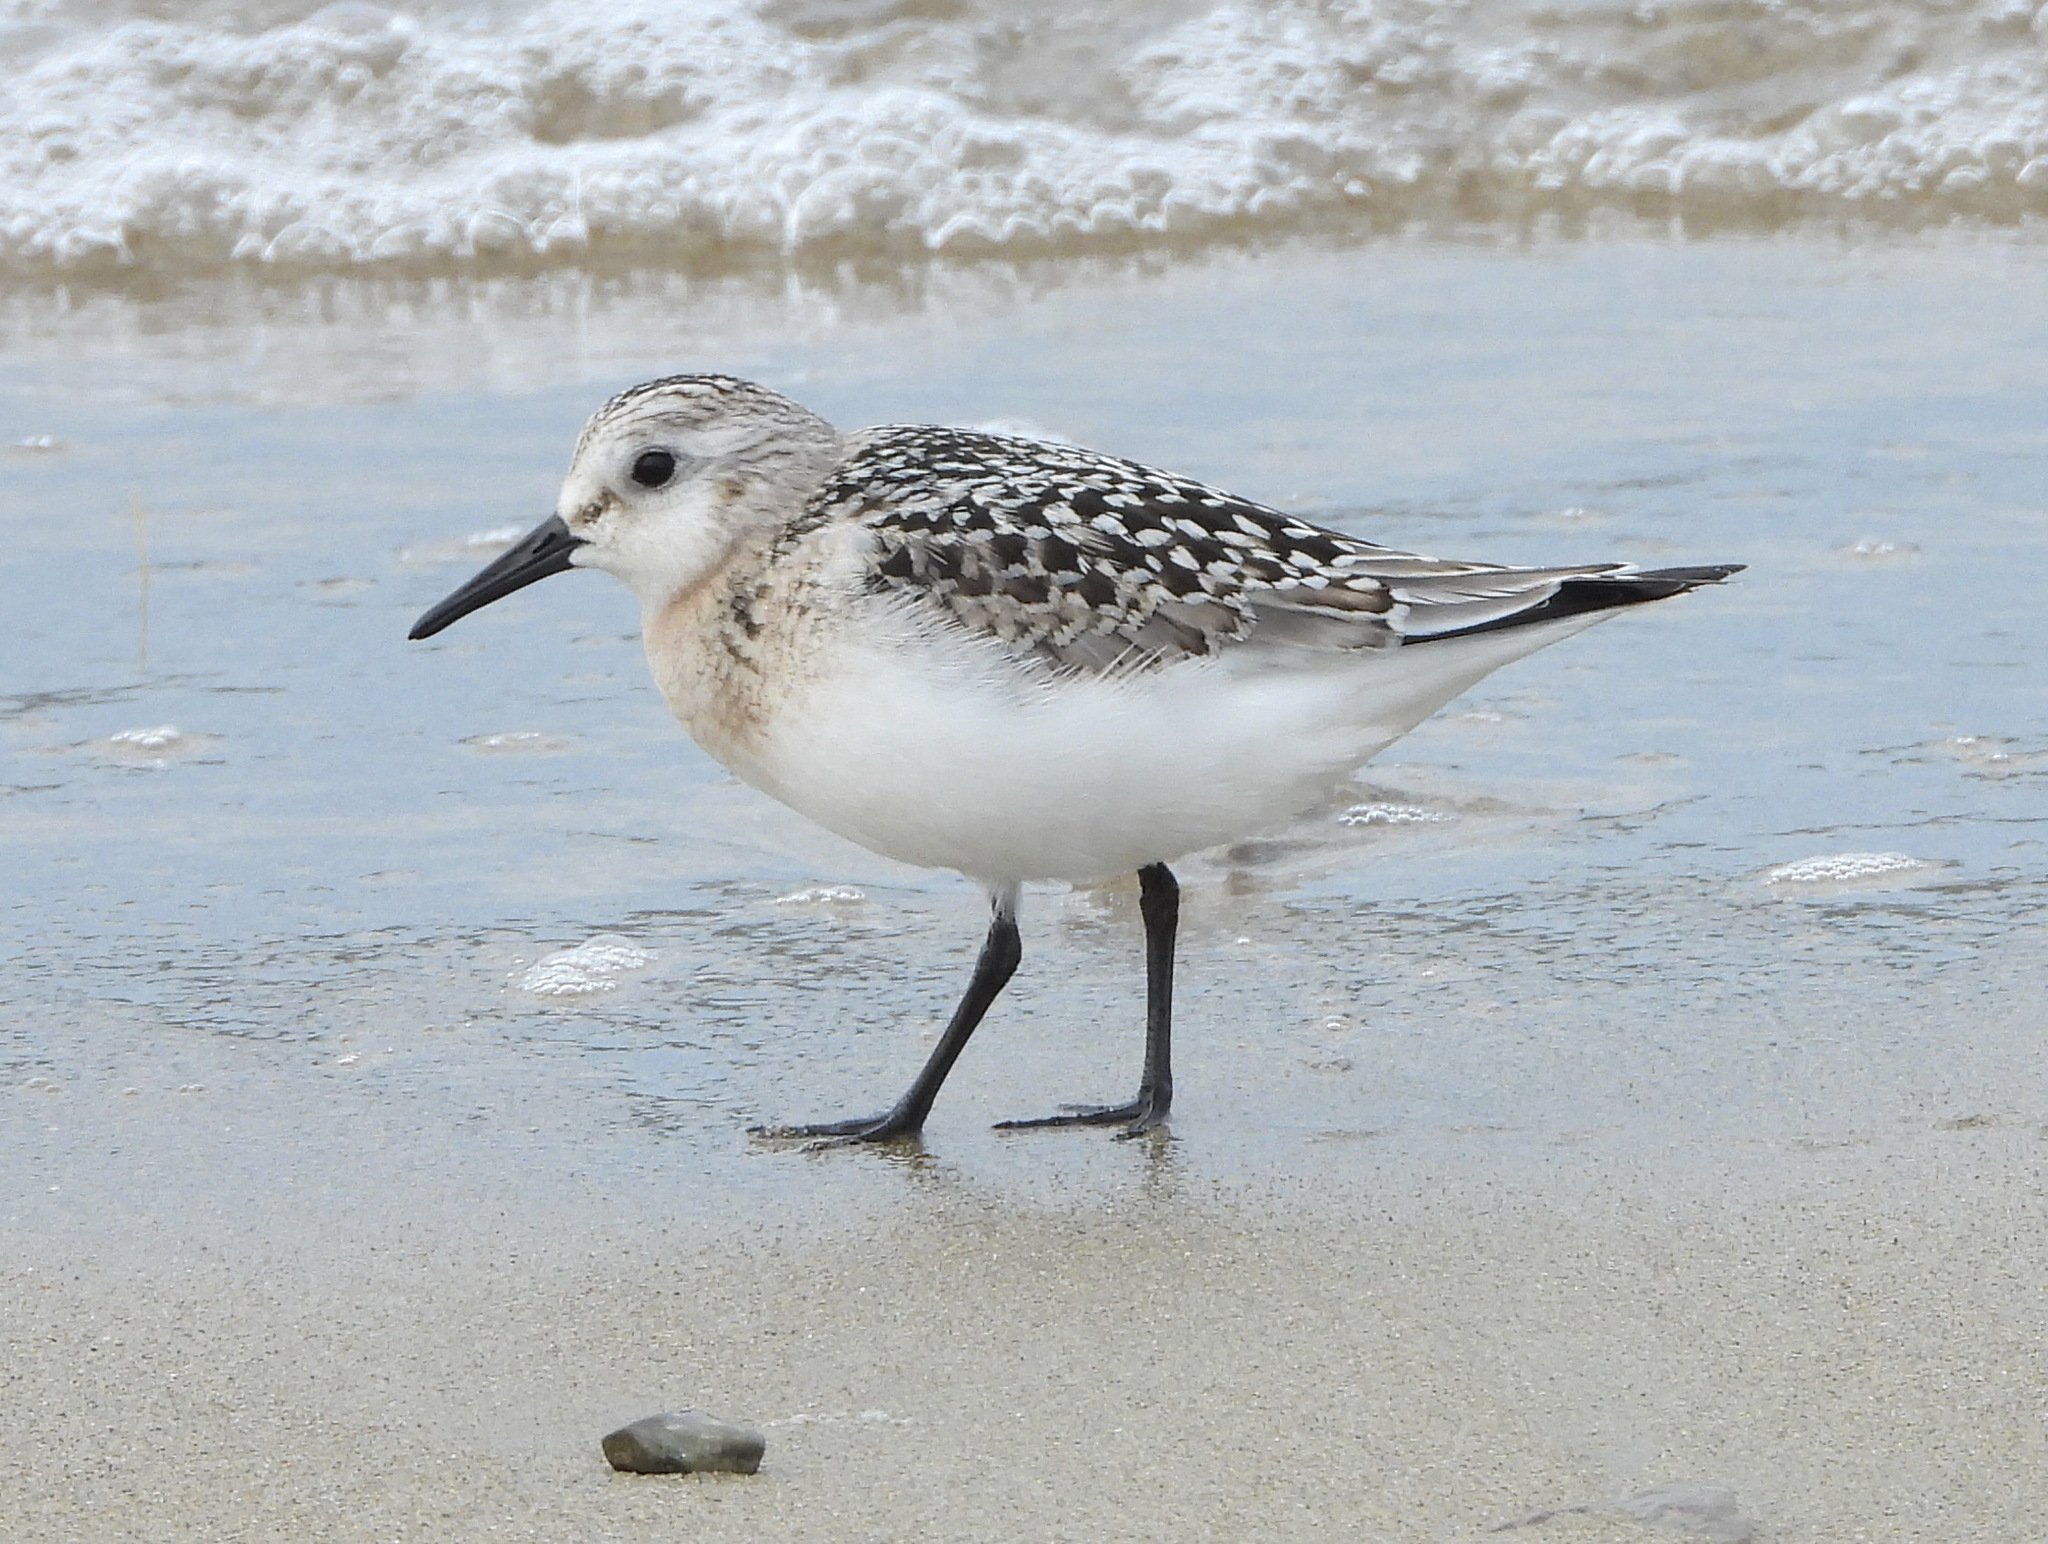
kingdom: Animalia
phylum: Chordata
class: Aves
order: Charadriiformes
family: Scolopacidae
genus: Calidris
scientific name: Calidris alba
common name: Sanderling
